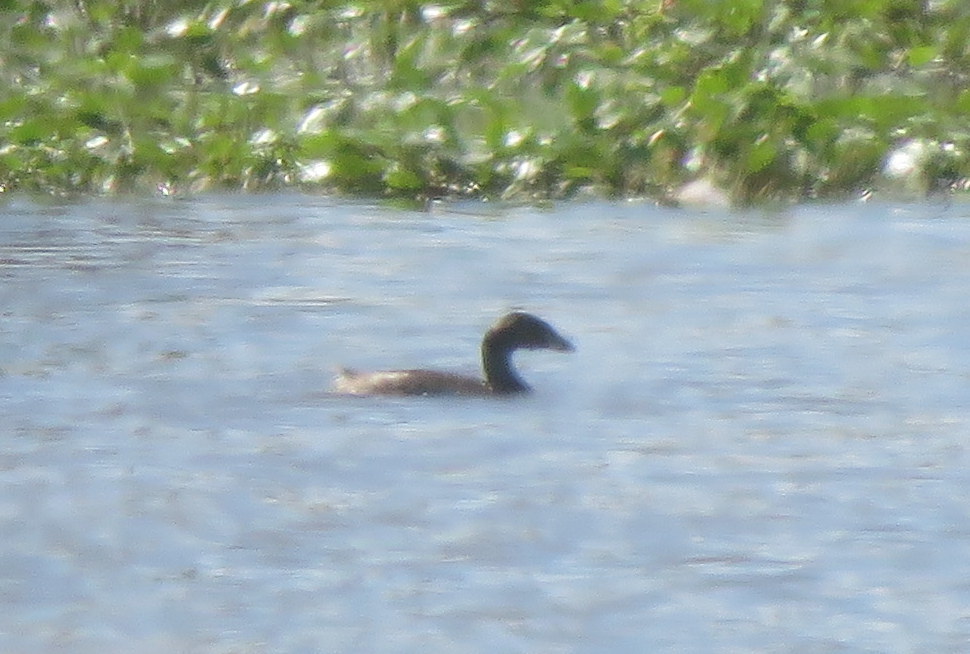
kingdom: Animalia
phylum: Chordata
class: Aves
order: Podicipediformes
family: Podicipedidae
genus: Podilymbus
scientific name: Podilymbus podiceps
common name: Pied-billed grebe
